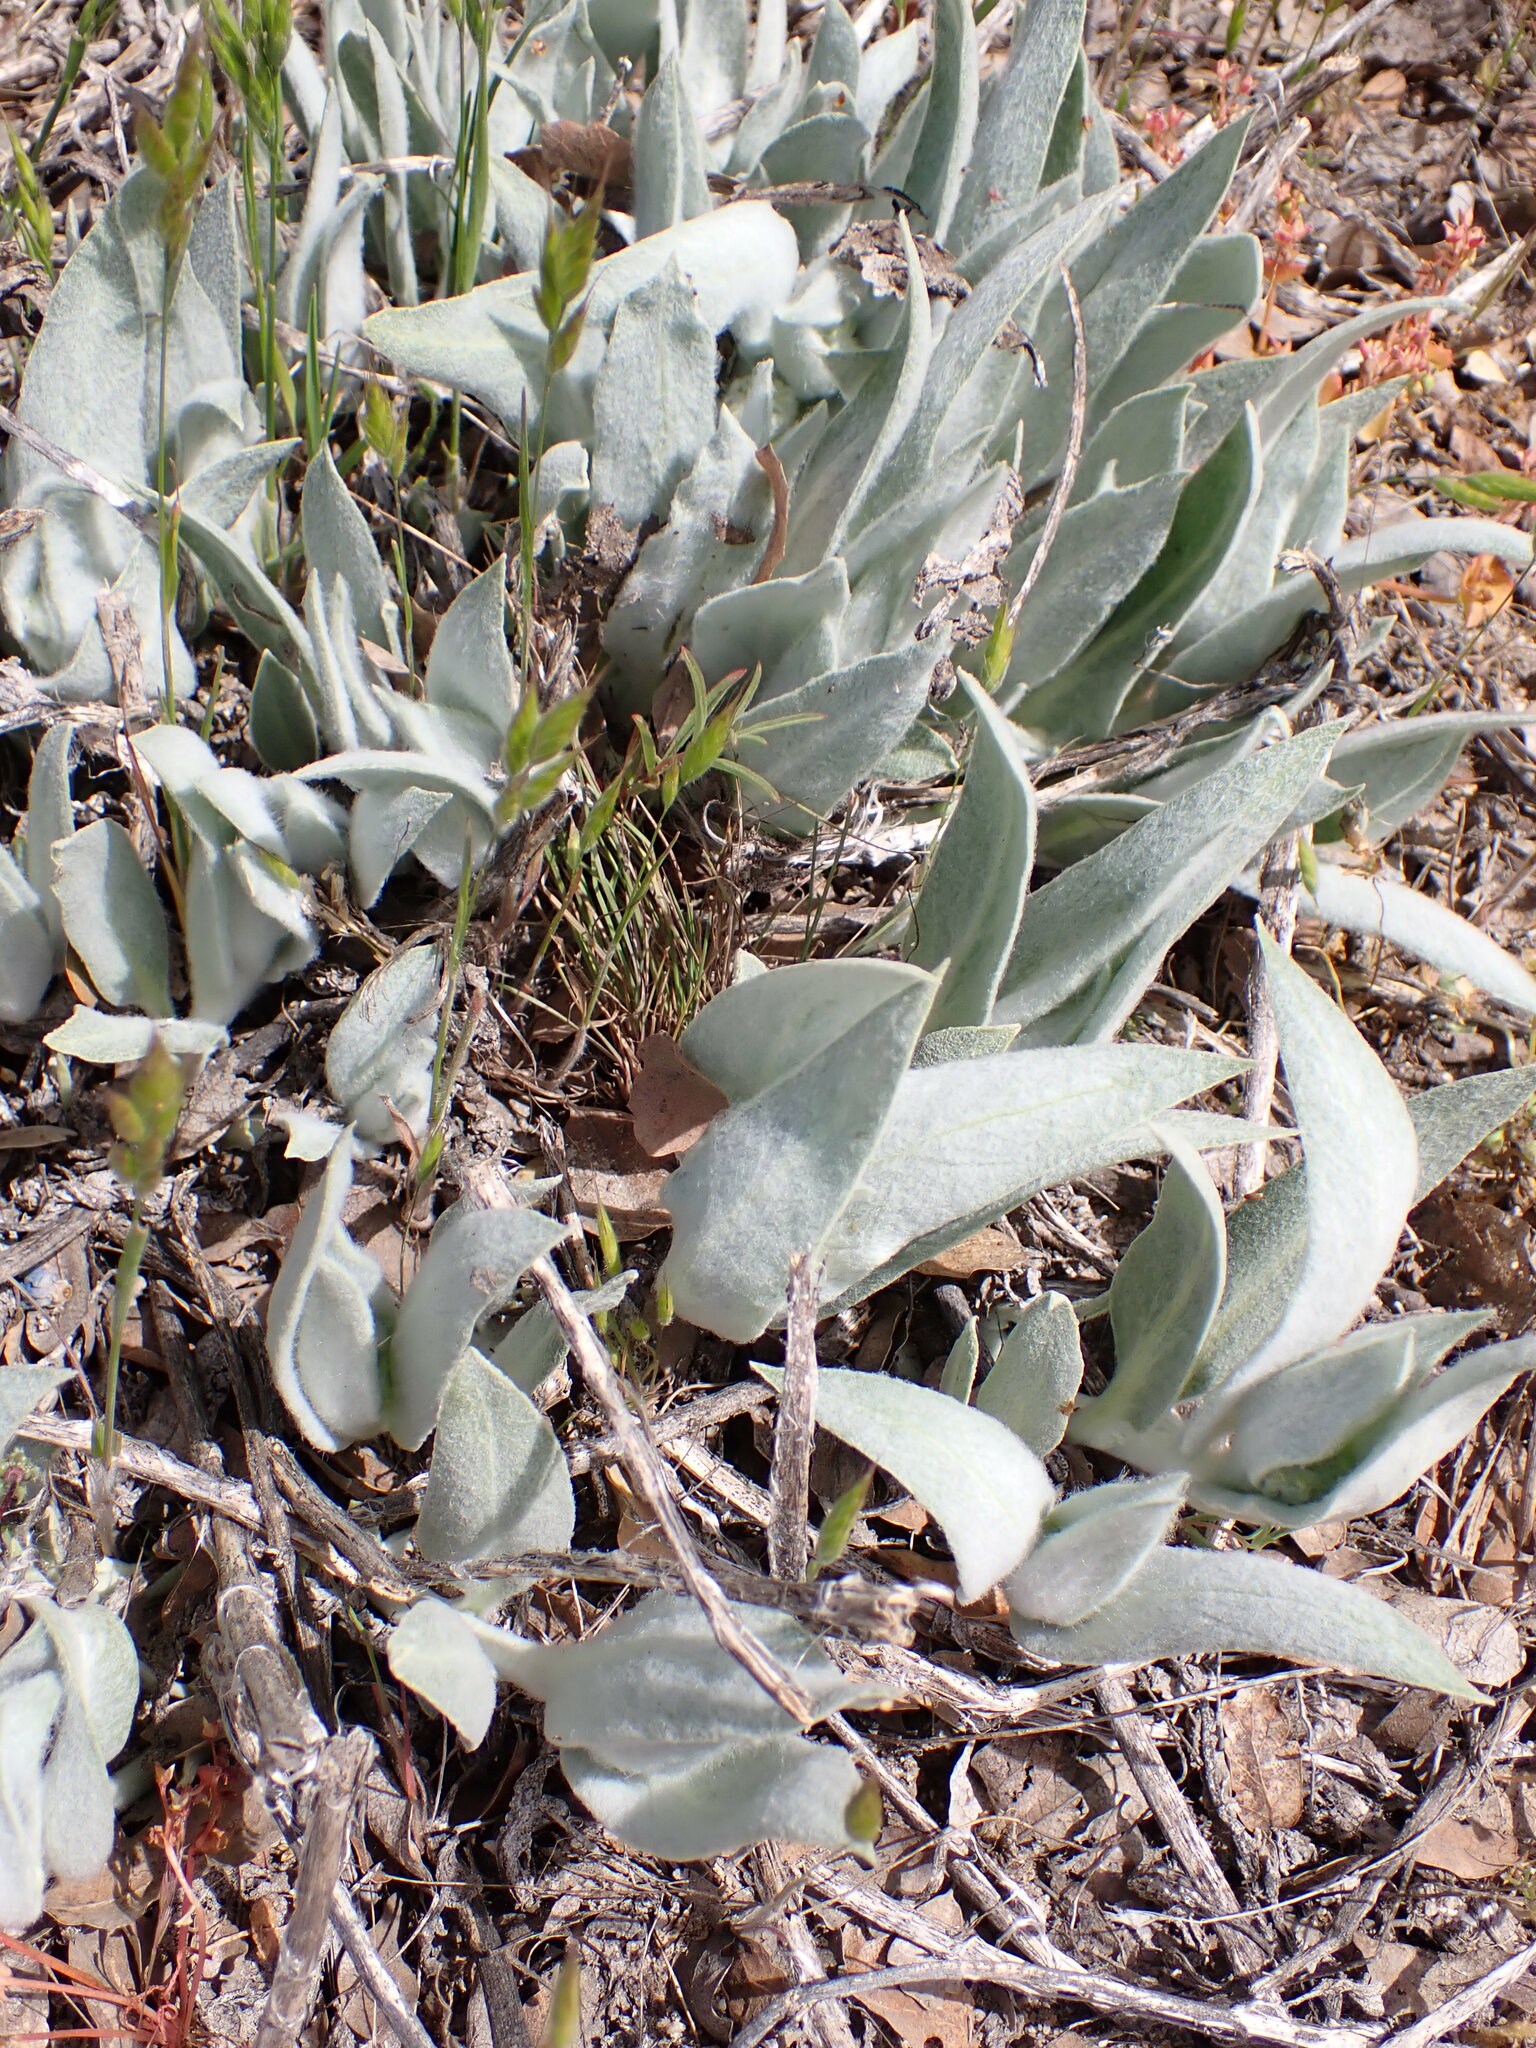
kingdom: Plantae
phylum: Tracheophyta
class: Magnoliopsida
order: Gentianales
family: Apocynaceae
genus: Asclepias
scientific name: Asclepias vestita
